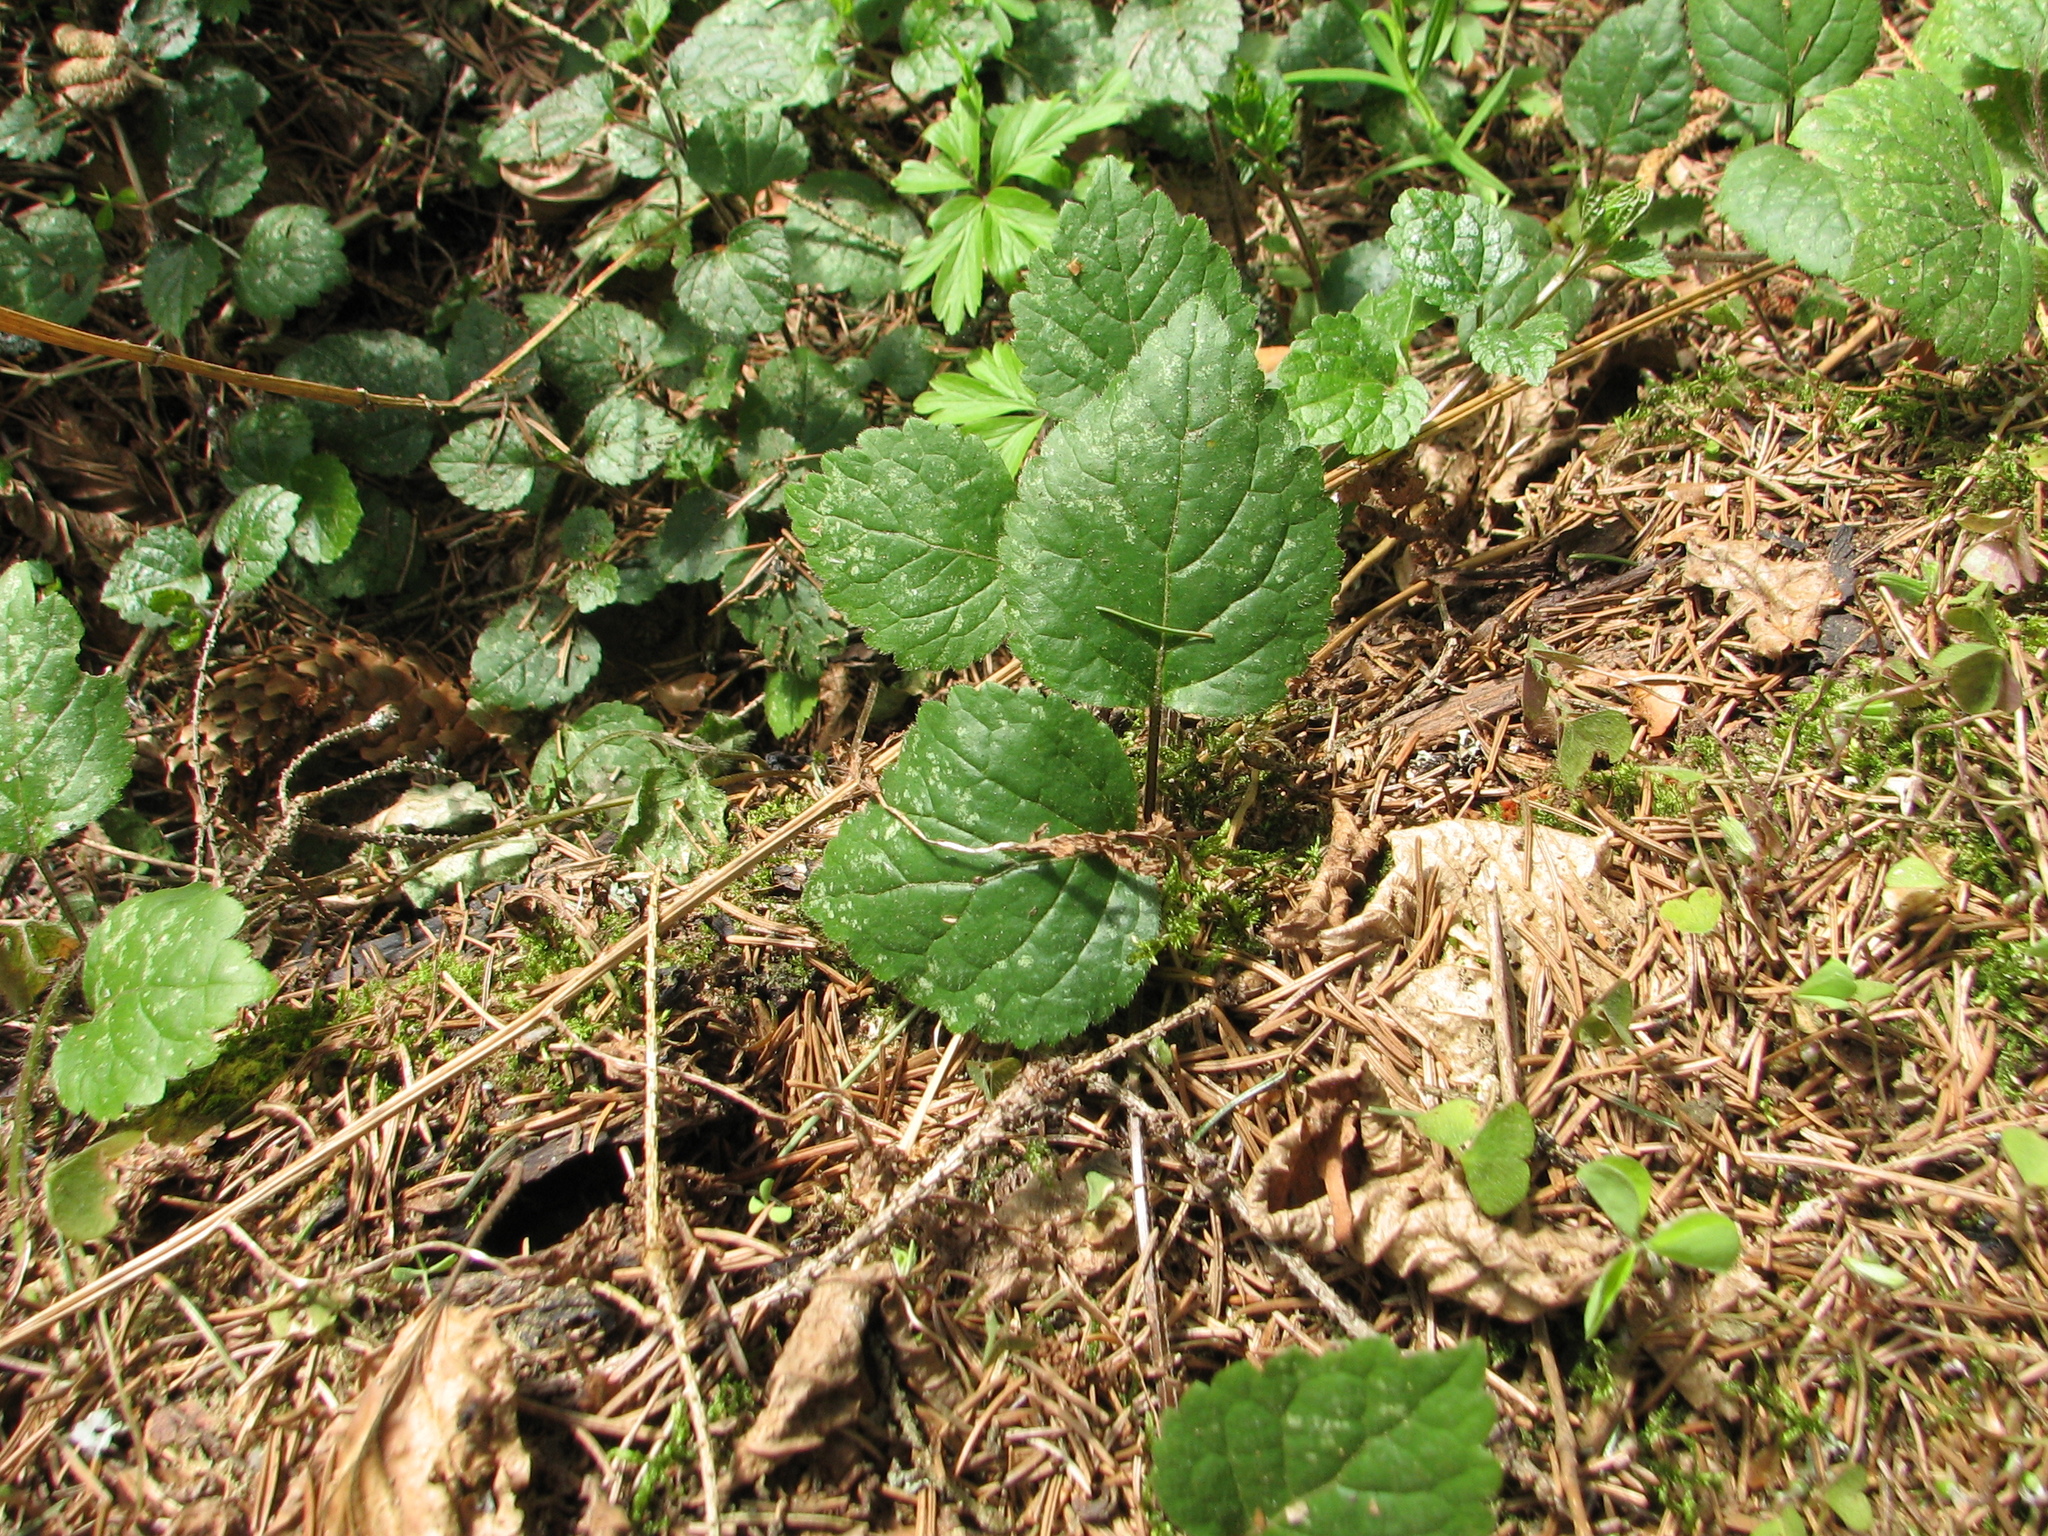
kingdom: Plantae
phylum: Tracheophyta
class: Magnoliopsida
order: Lamiales
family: Lamiaceae
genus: Lamium
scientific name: Lamium galeobdolon
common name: Yellow archangel
